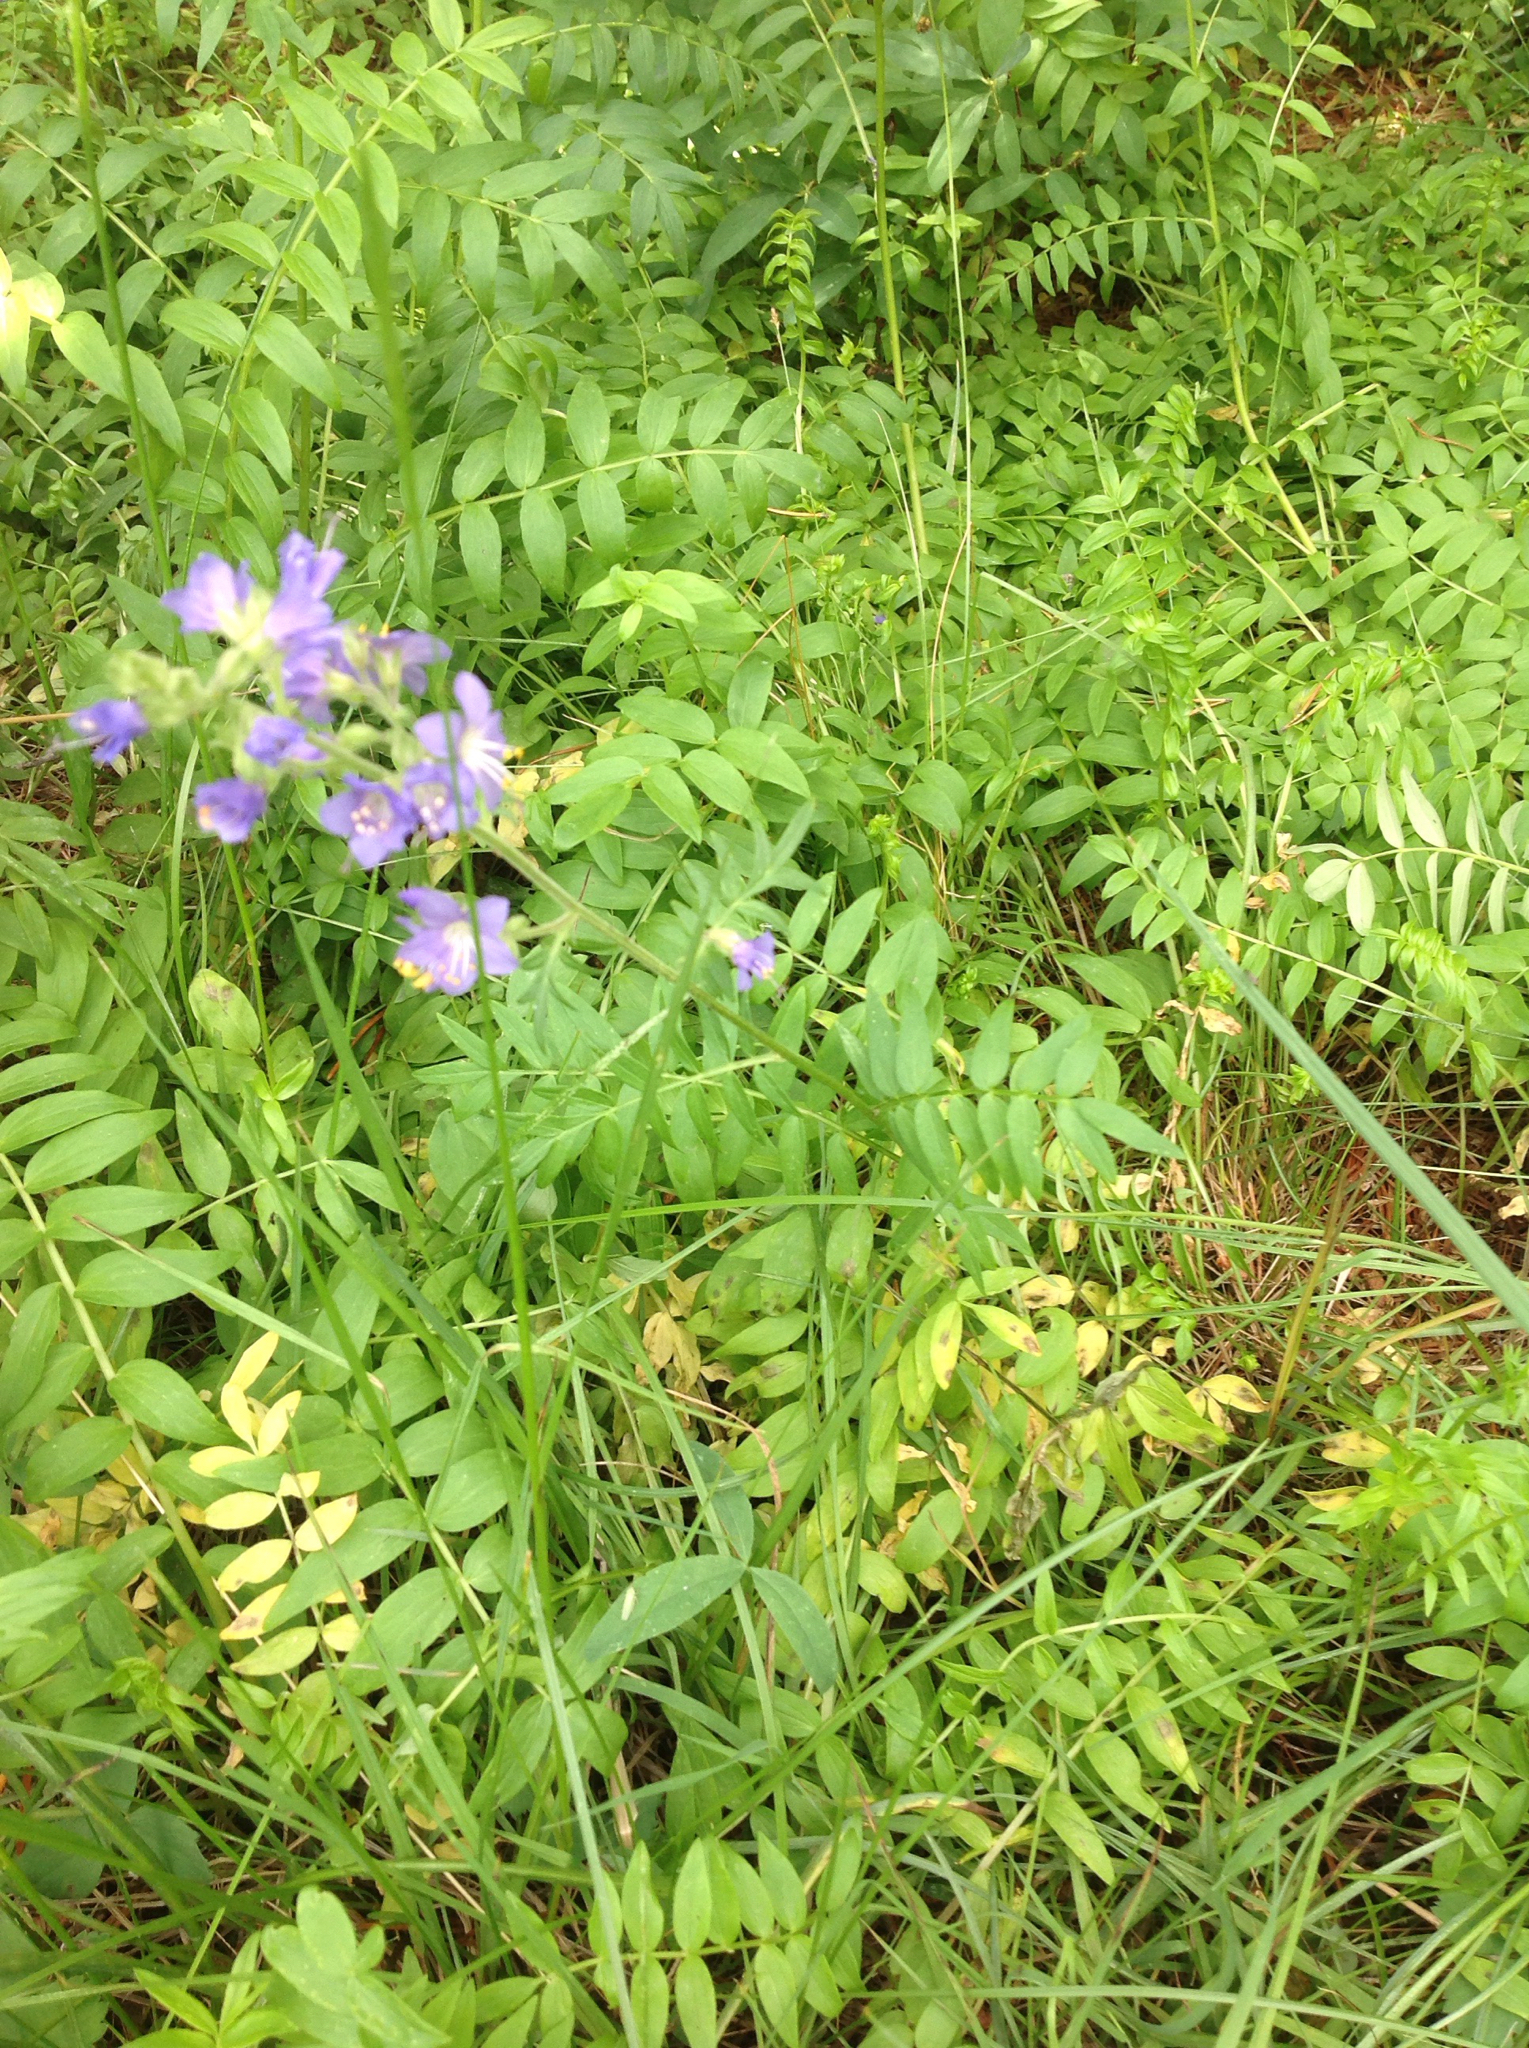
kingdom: Plantae
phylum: Tracheophyta
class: Magnoliopsida
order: Ericales
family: Polemoniaceae
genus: Polemonium
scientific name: Polemonium occidentale
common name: Western jacob's-ladder
